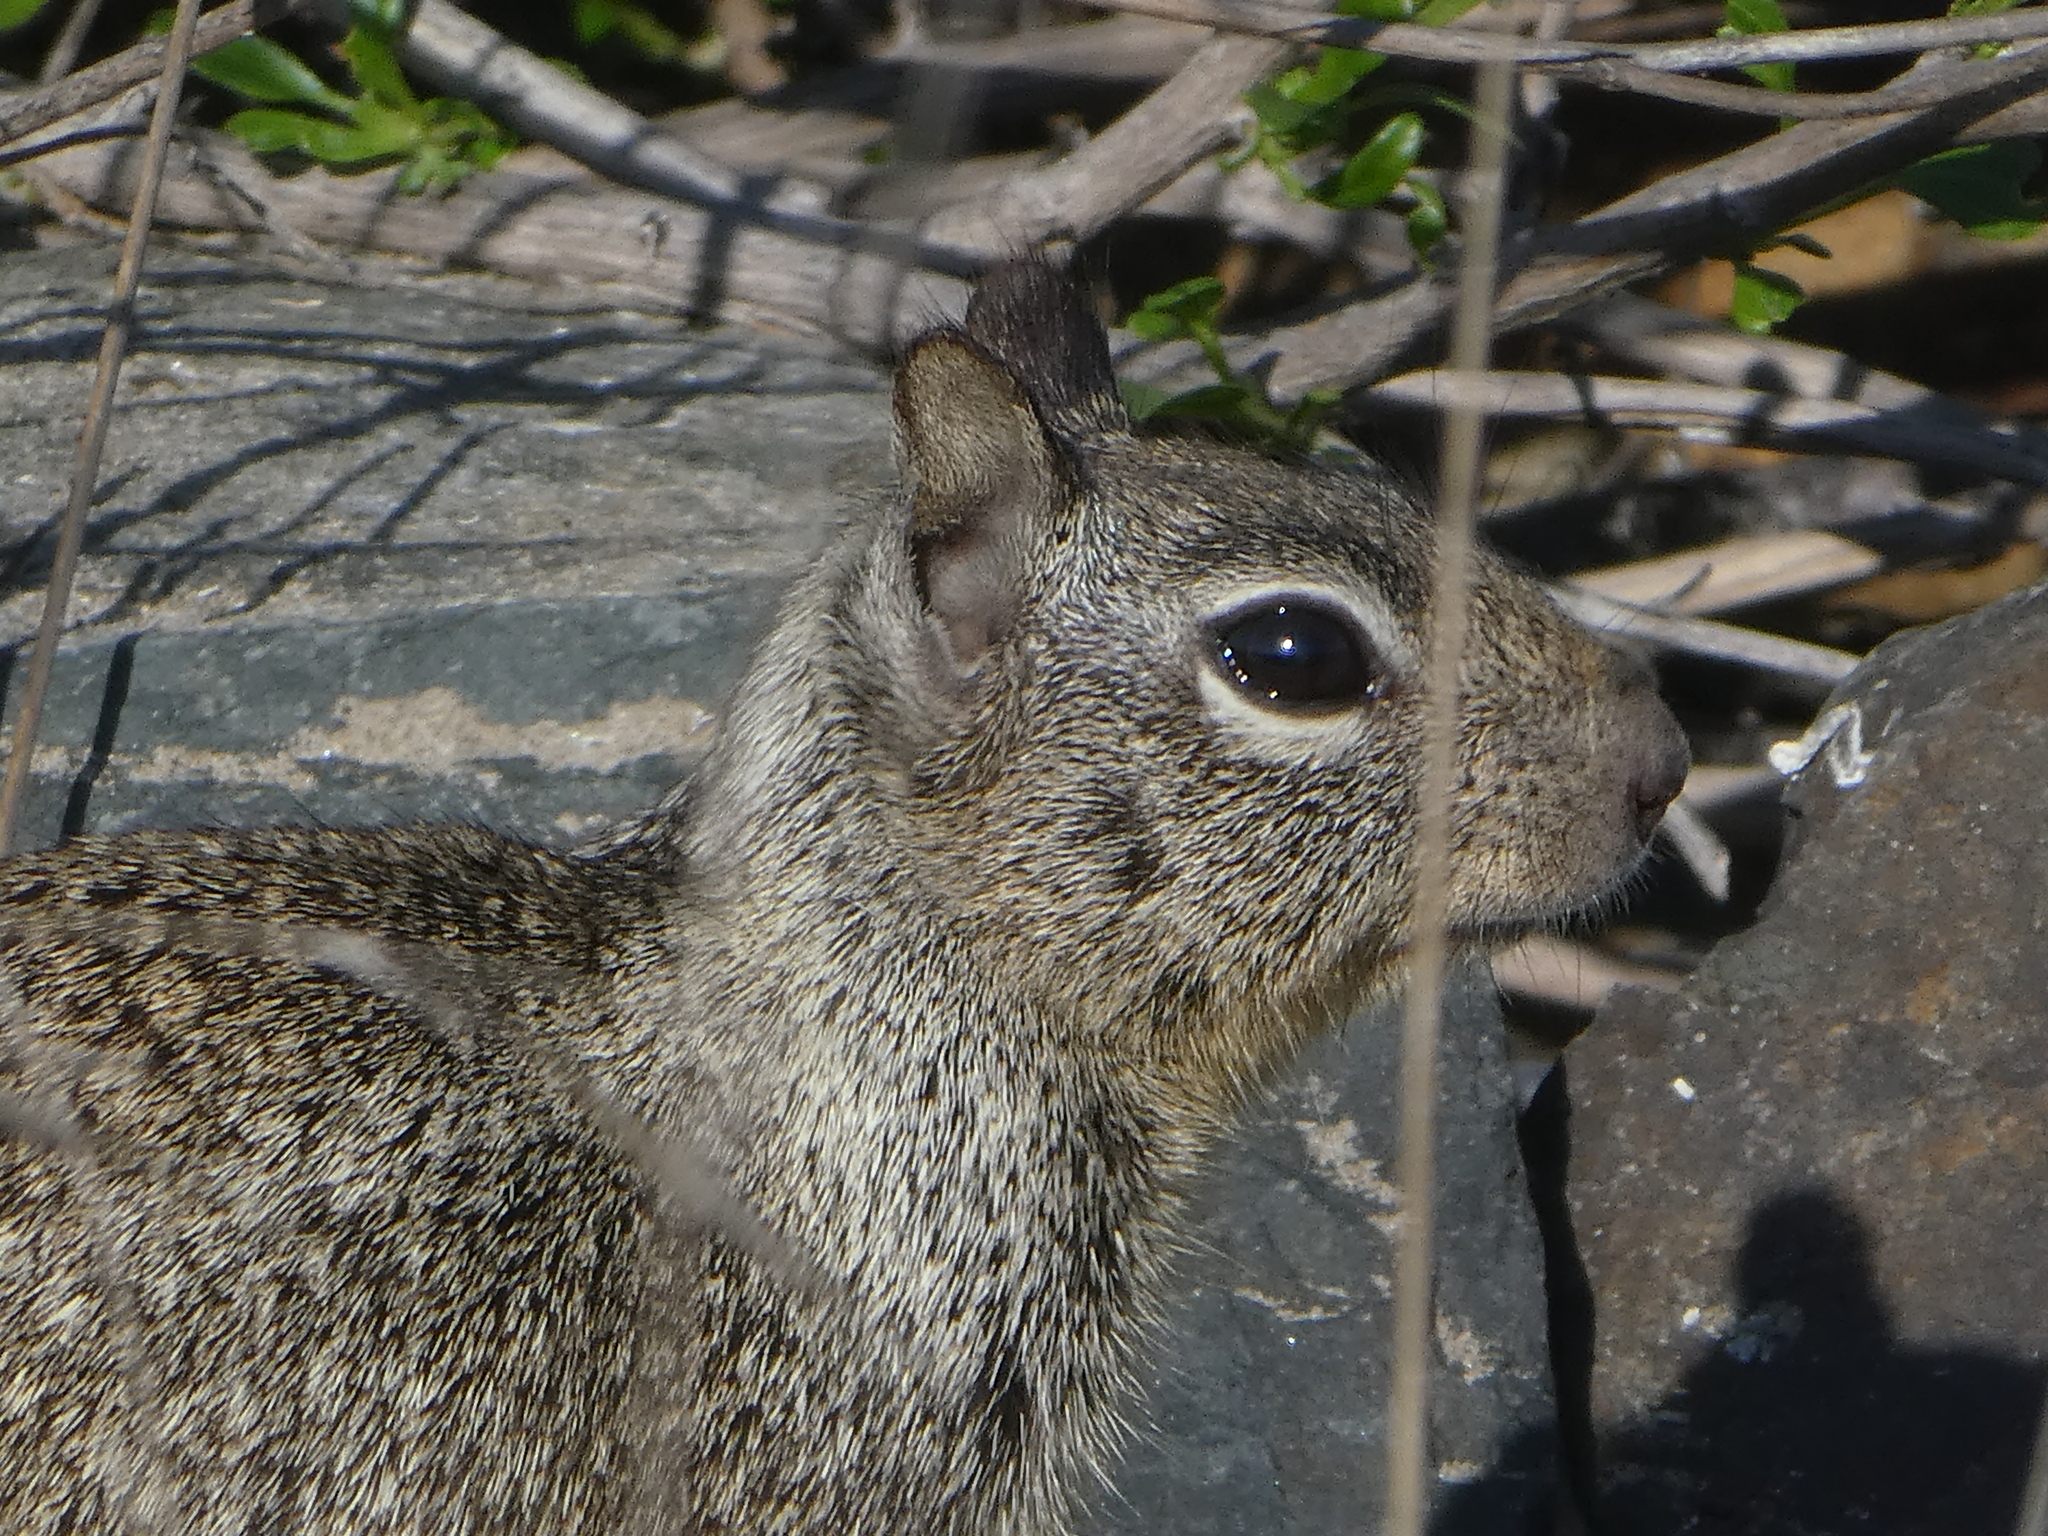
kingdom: Animalia
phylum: Chordata
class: Mammalia
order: Rodentia
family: Sciuridae
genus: Otospermophilus
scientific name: Otospermophilus beecheyi
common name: California ground squirrel
